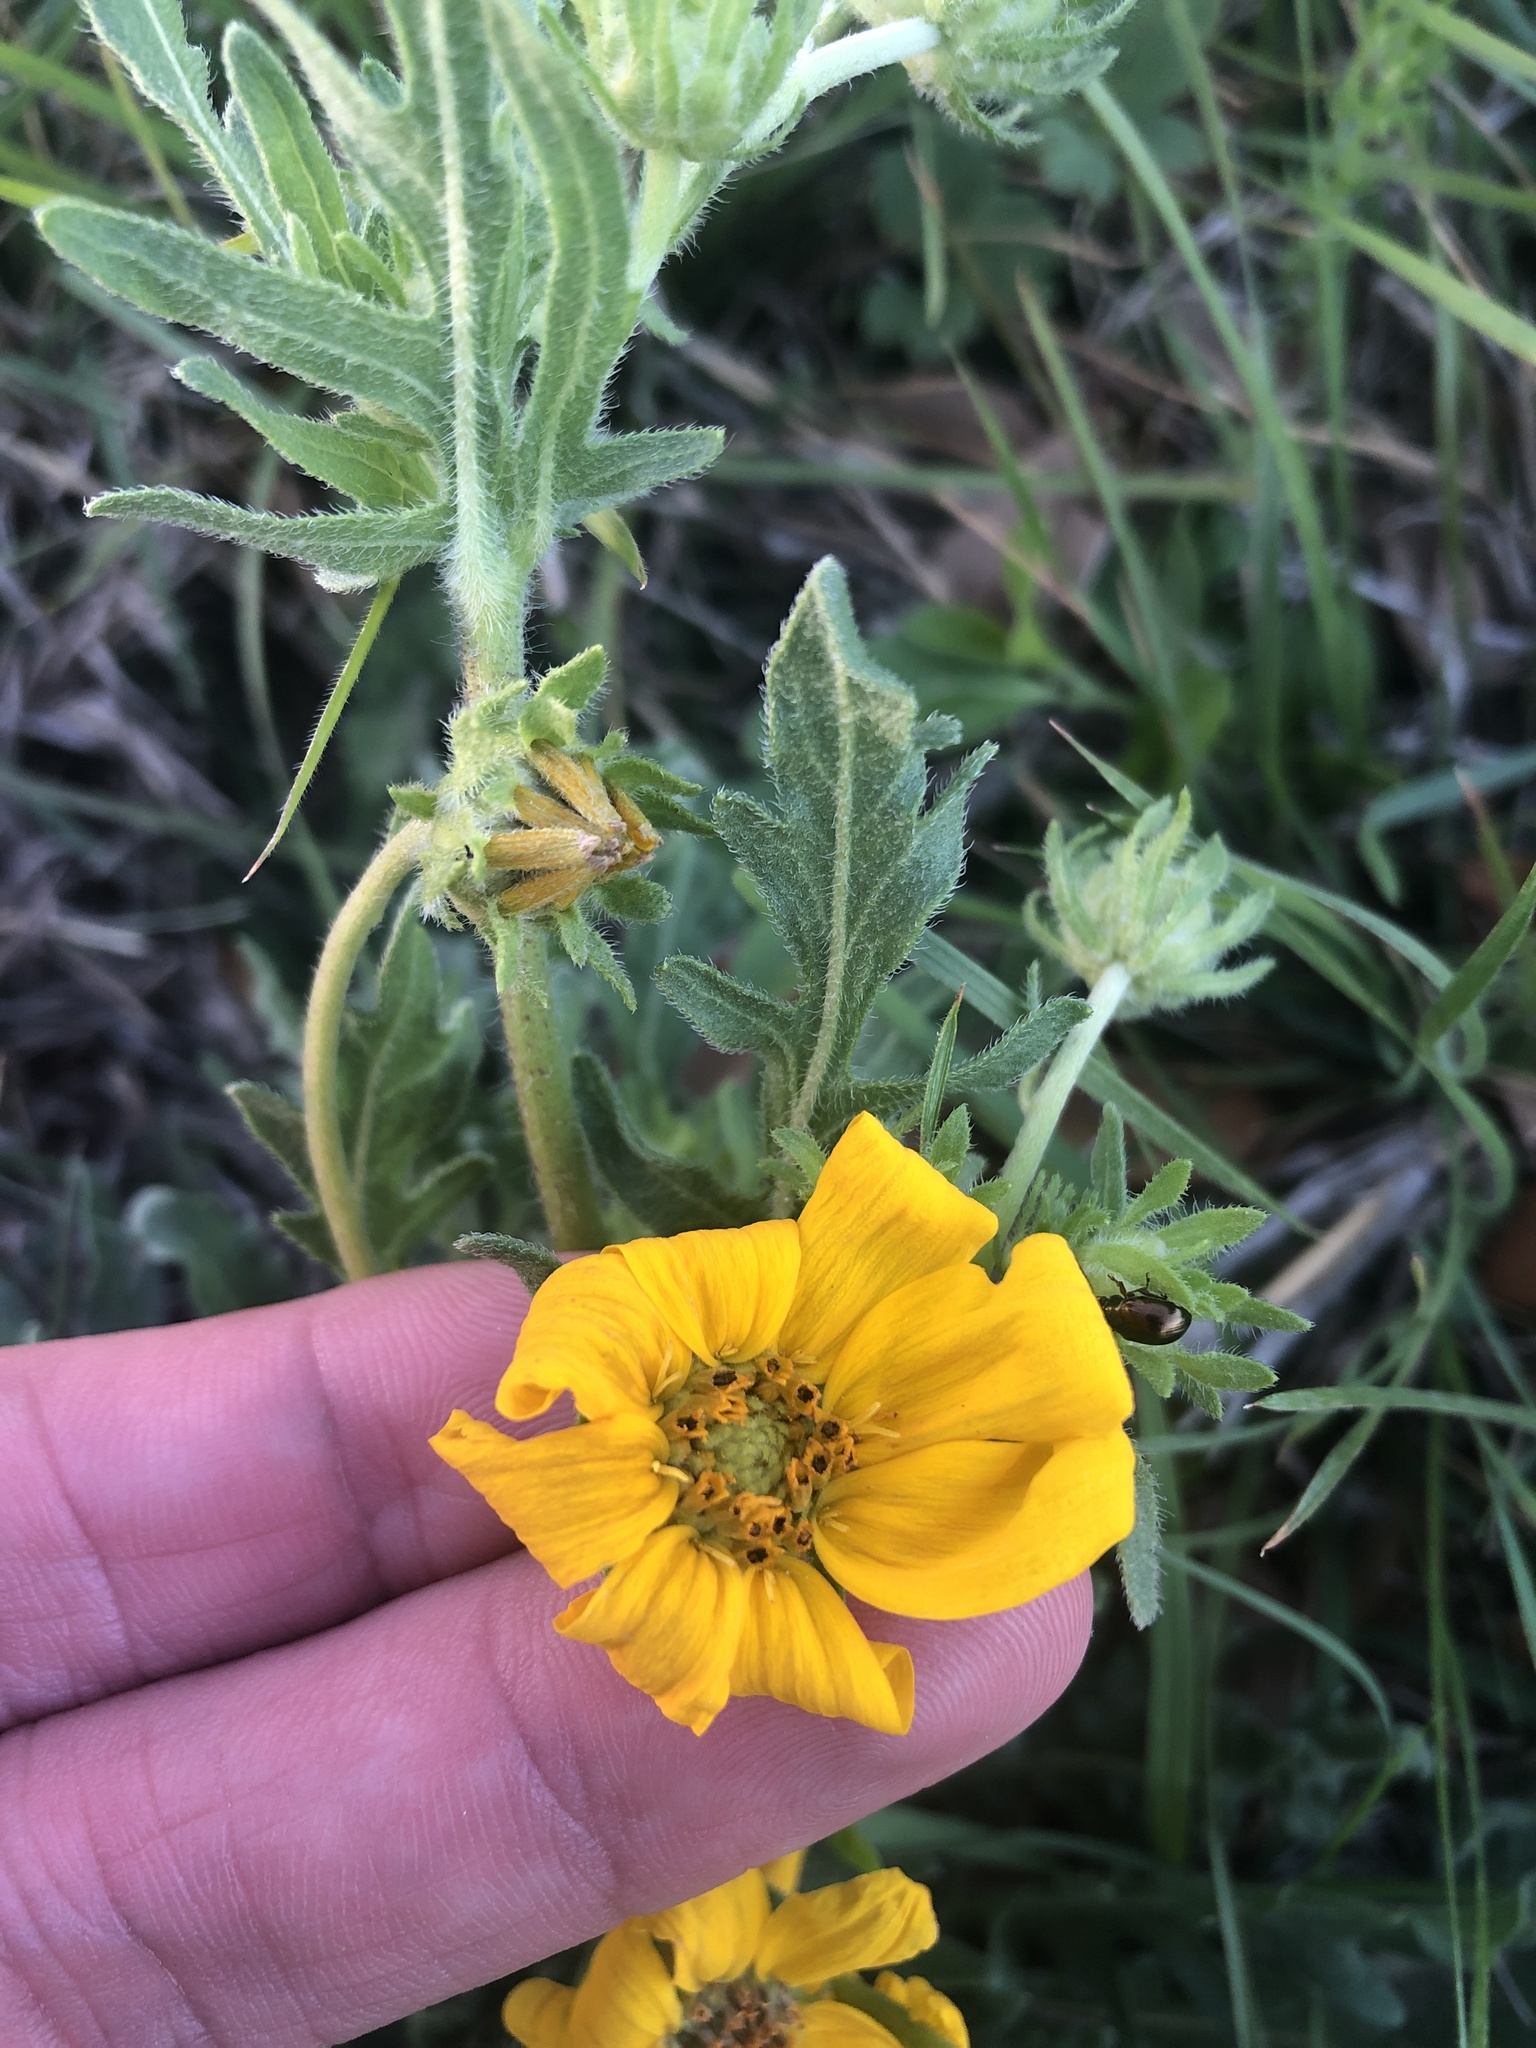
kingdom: Plantae
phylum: Tracheophyta
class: Magnoliopsida
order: Asterales
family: Asteraceae
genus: Engelmannia
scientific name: Engelmannia peristenia
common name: Engelmann's daisy
